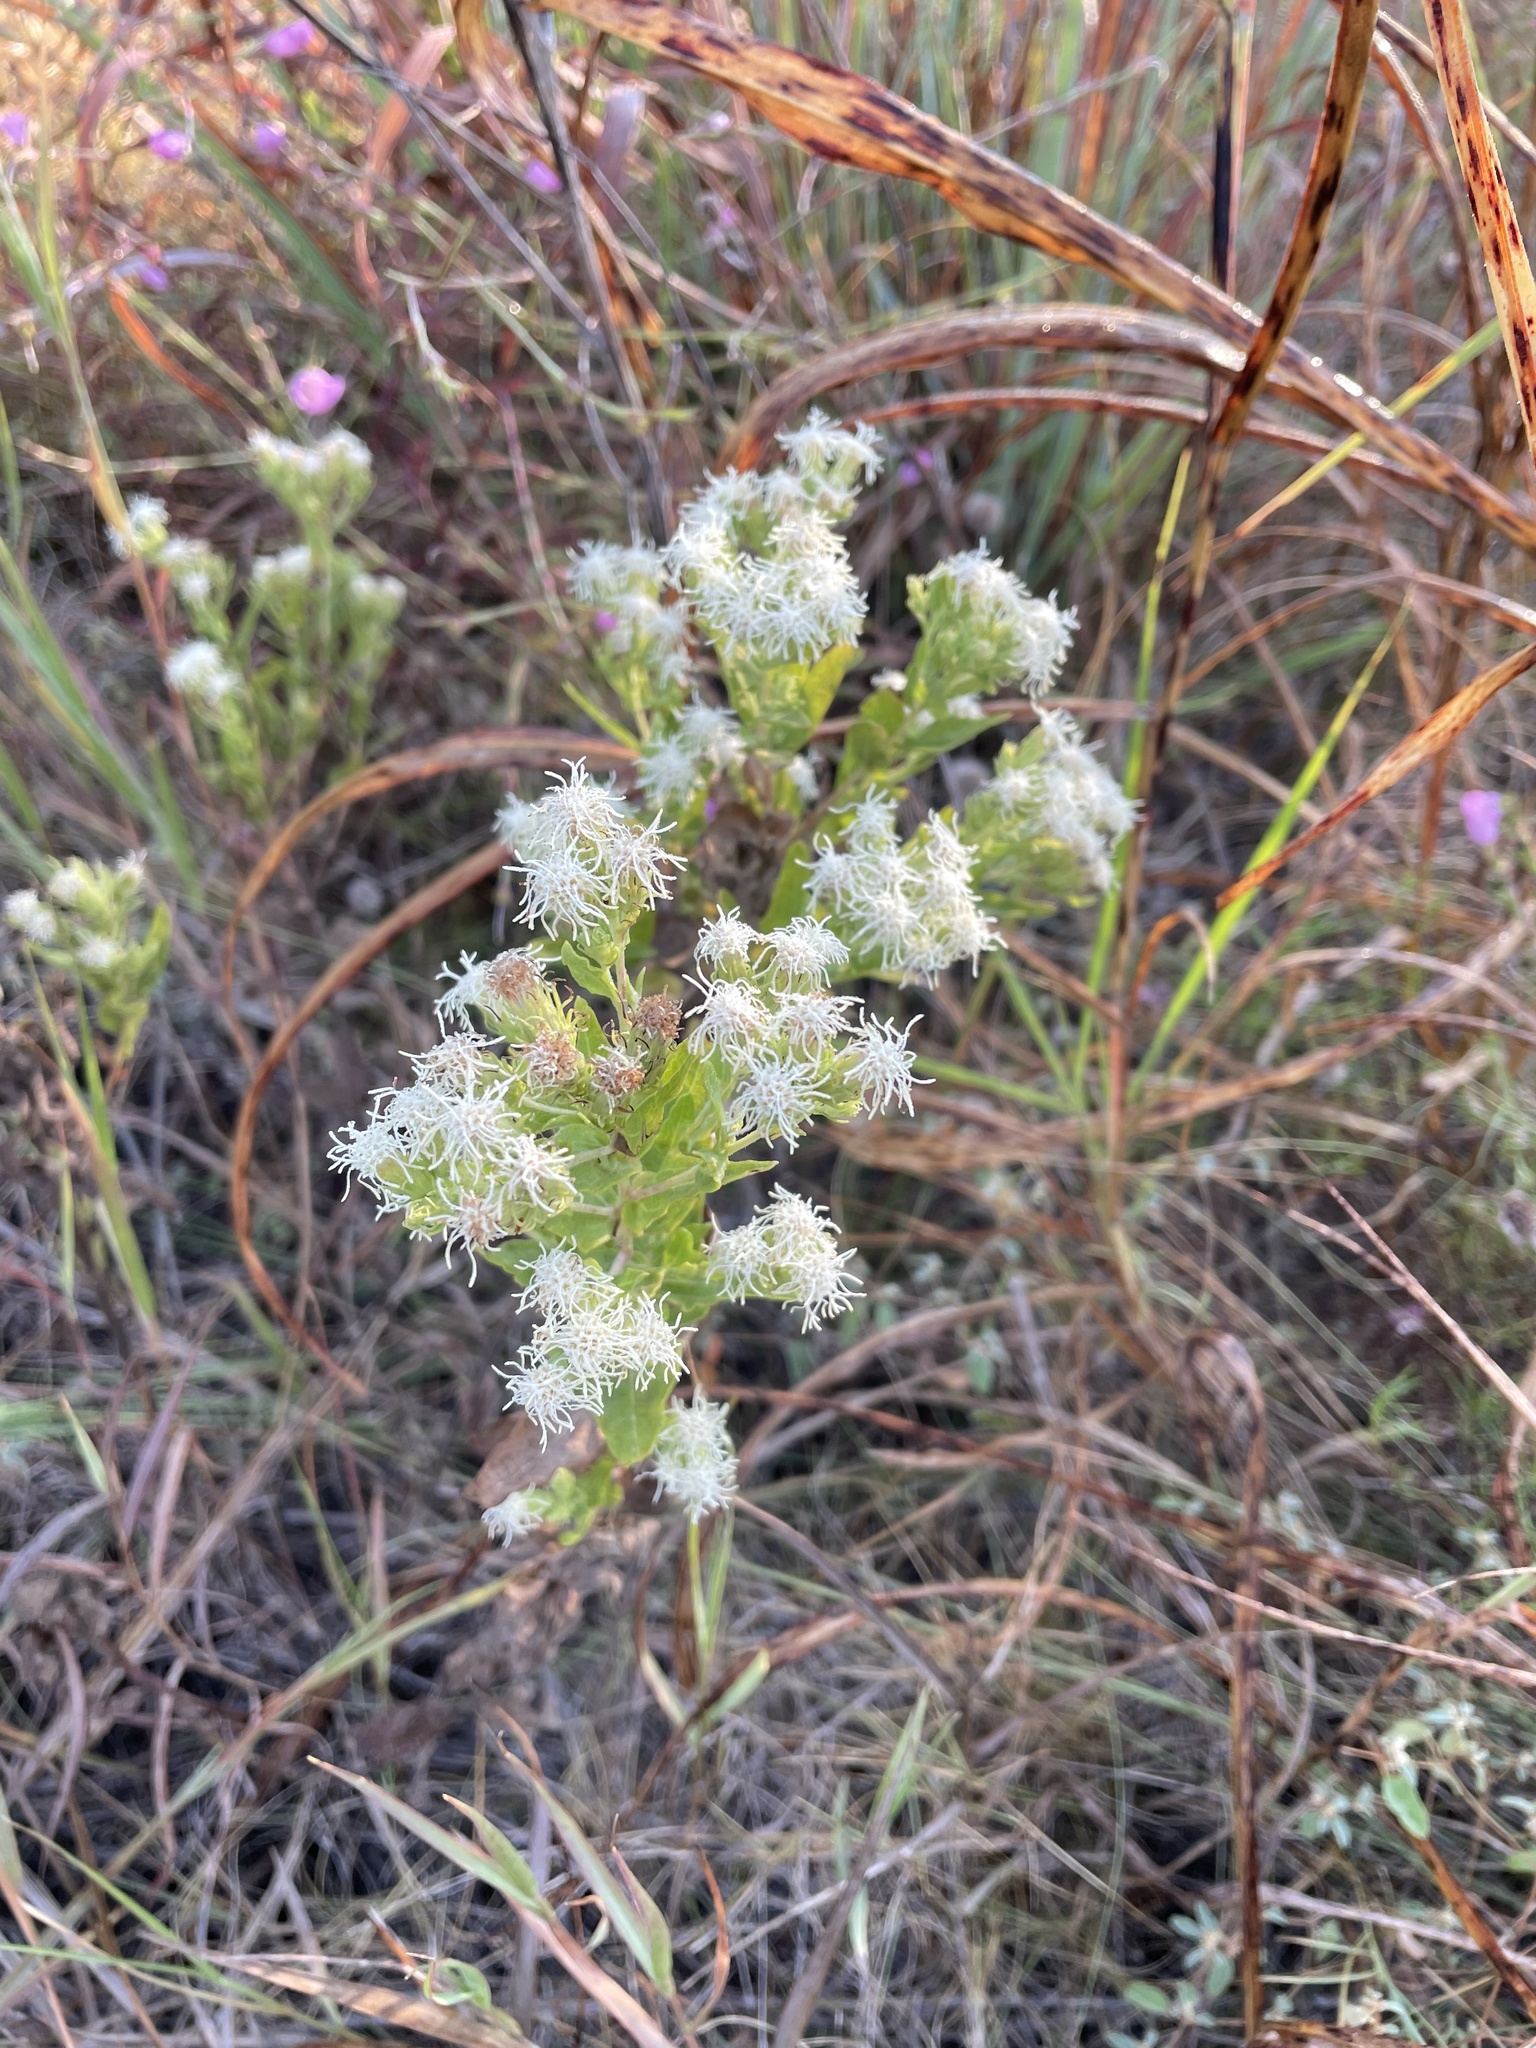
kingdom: Plantae
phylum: Tracheophyta
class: Magnoliopsida
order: Asterales
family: Asteraceae
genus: Brickellia
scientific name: Brickellia eupatorioides
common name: False boneset
